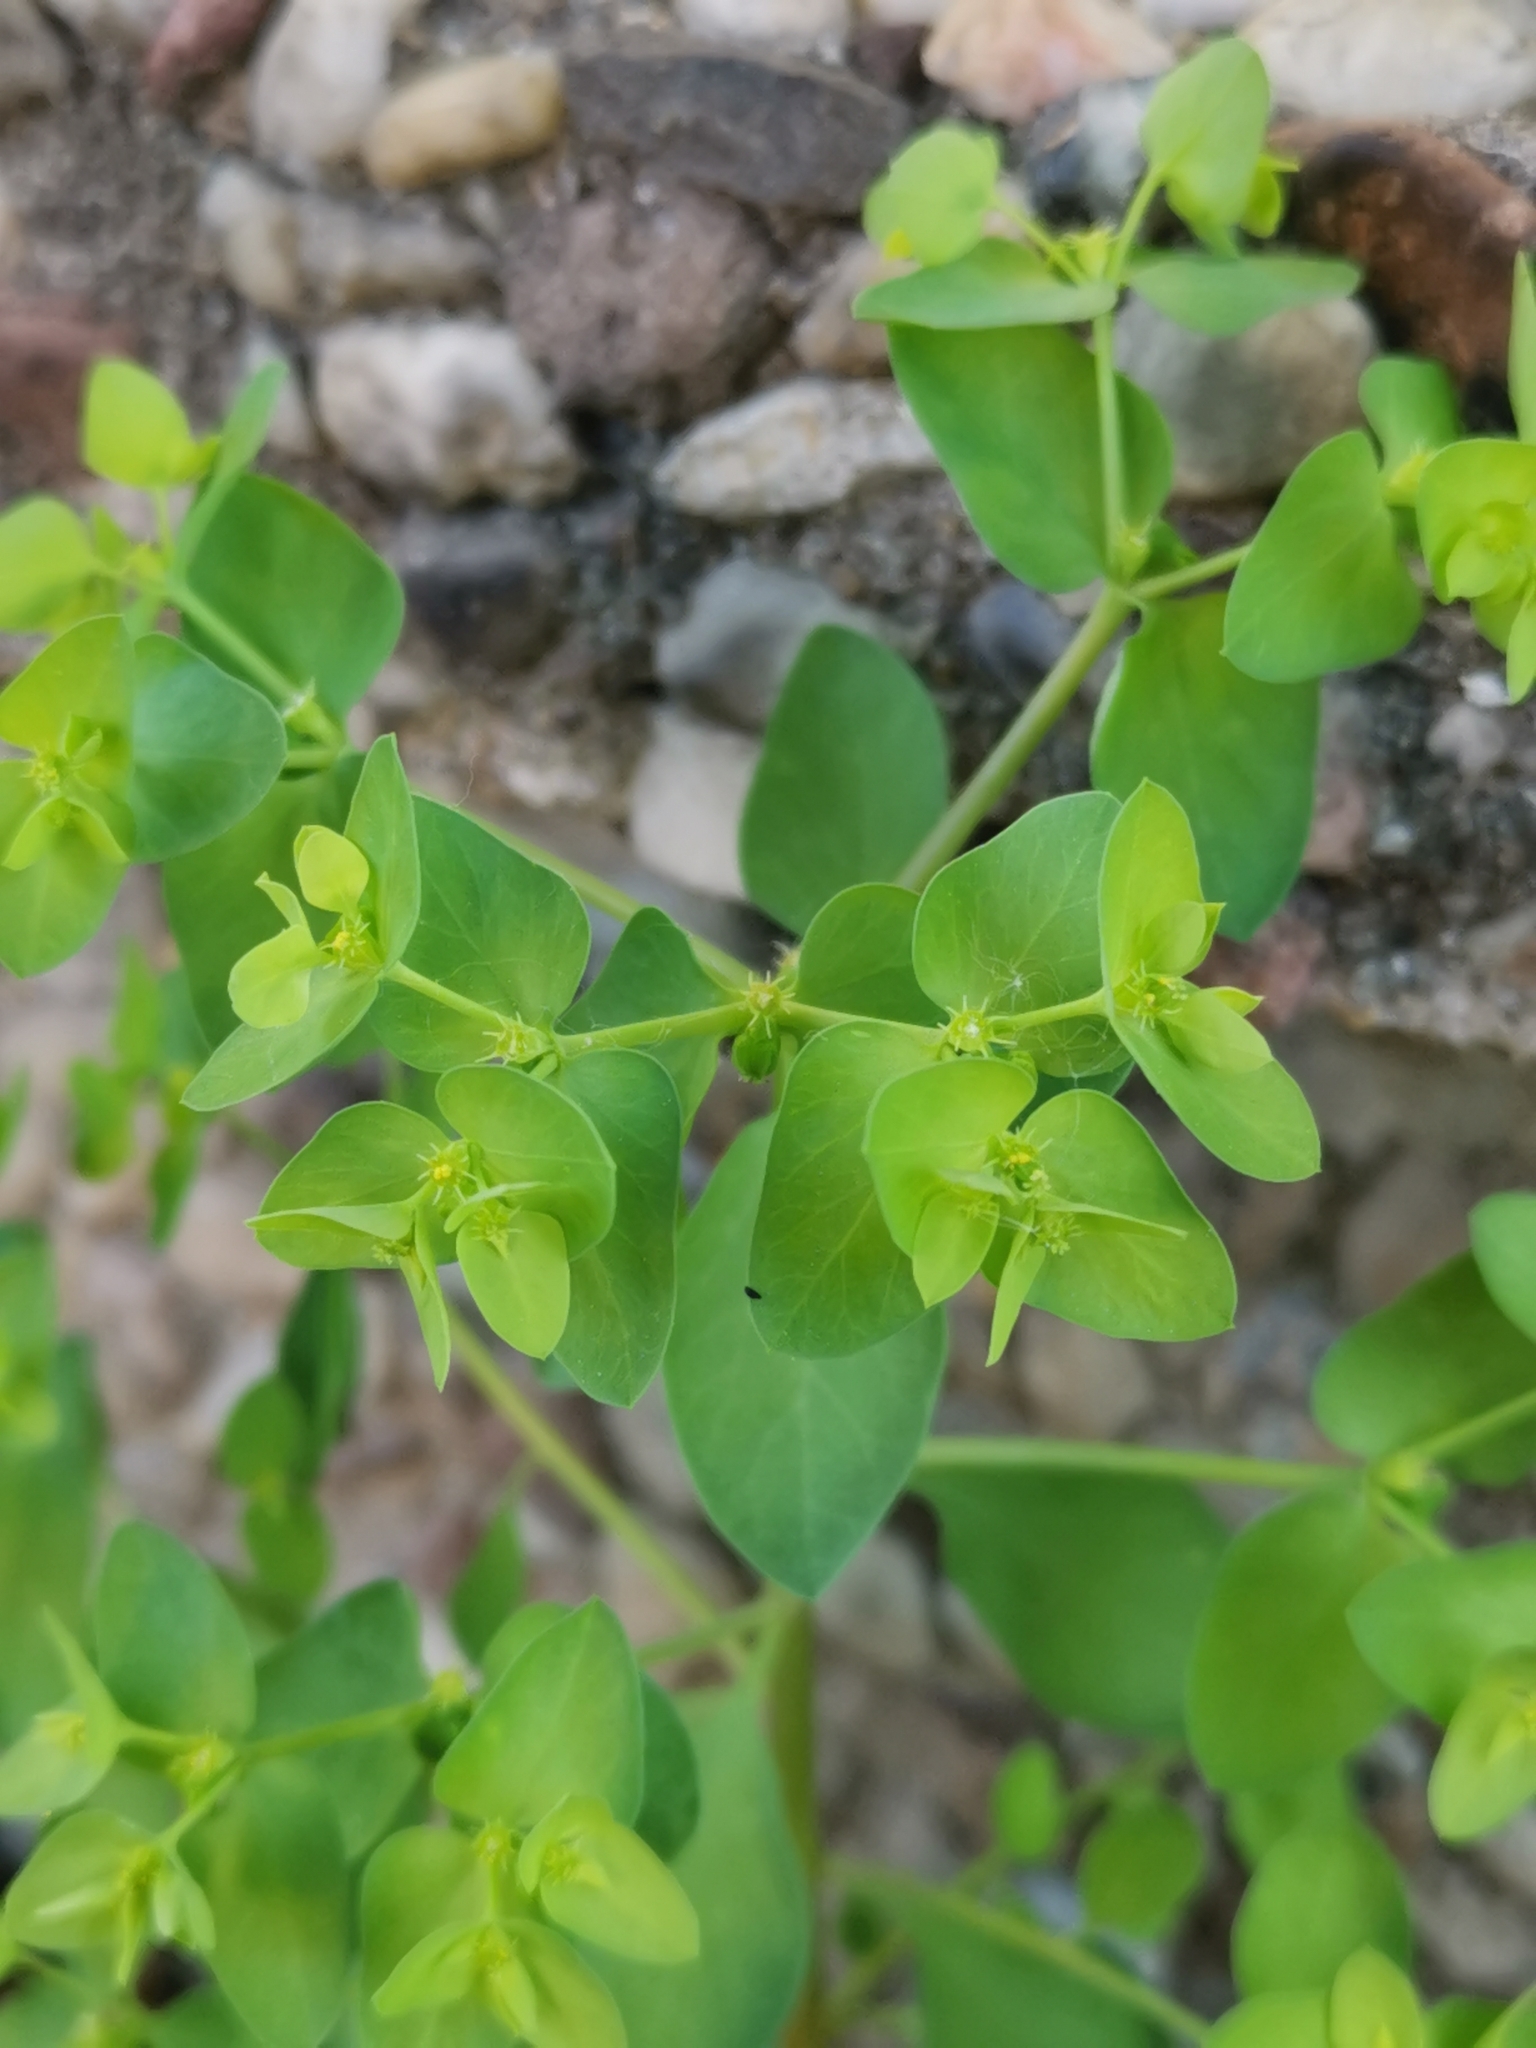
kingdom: Plantae
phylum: Tracheophyta
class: Magnoliopsida
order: Malpighiales
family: Euphorbiaceae
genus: Euphorbia
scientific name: Euphorbia peplus
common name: Petty spurge
